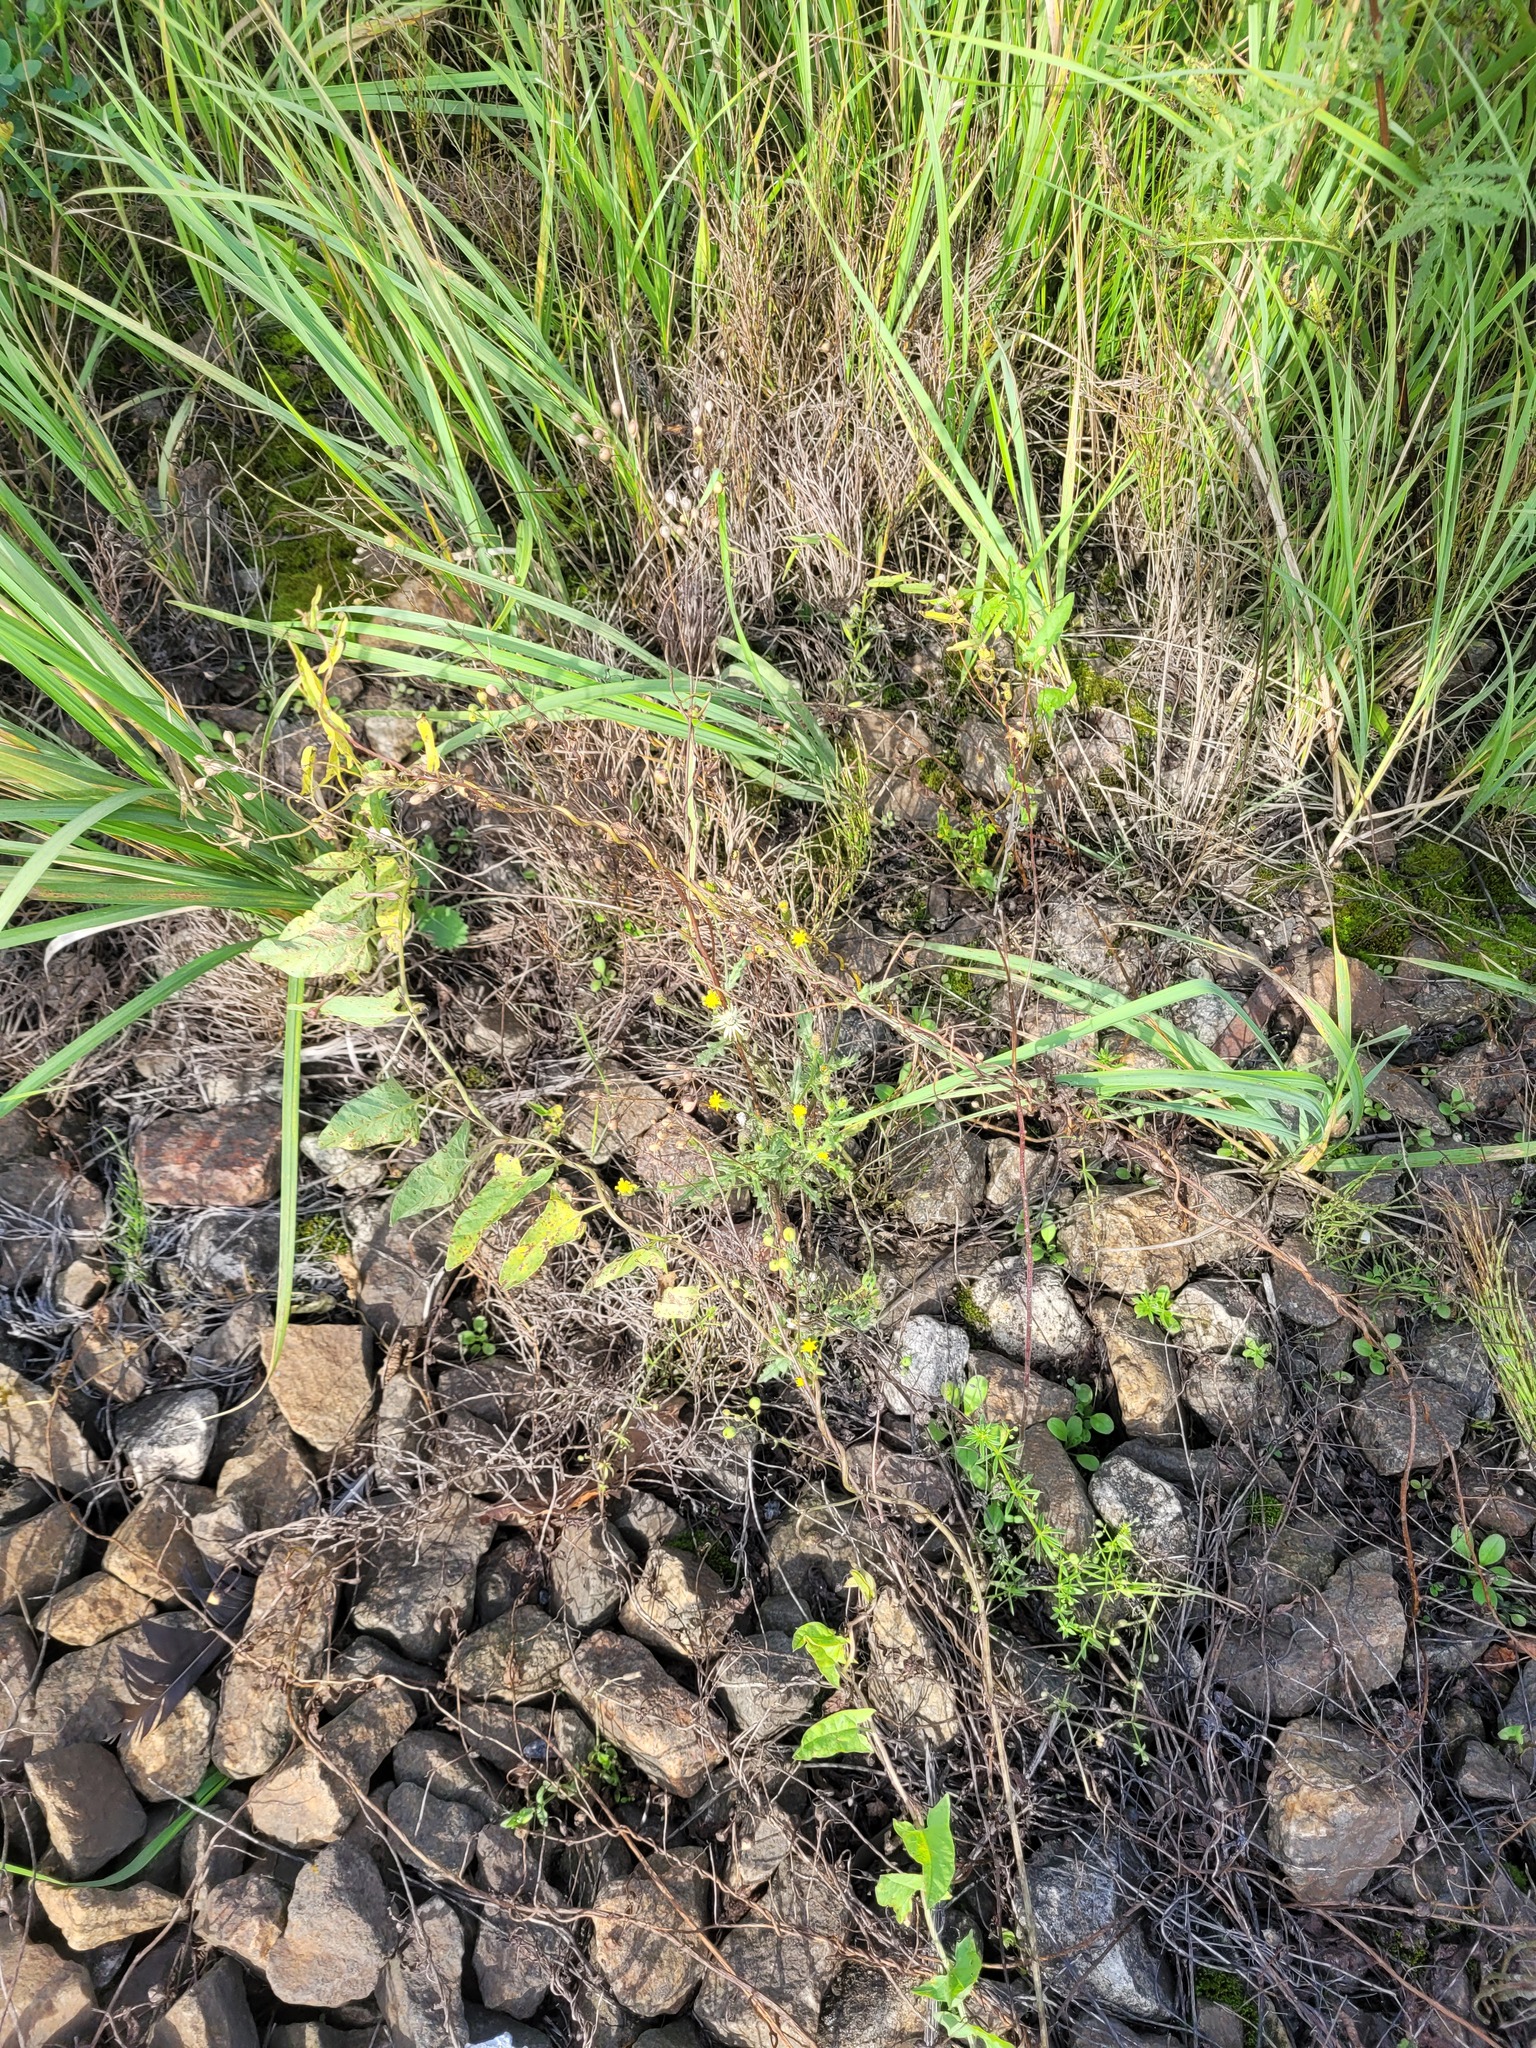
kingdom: Plantae
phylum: Tracheophyta
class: Magnoliopsida
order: Asterales
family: Asteraceae
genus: Senecio
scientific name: Senecio viscosus
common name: Sticky groundsel
